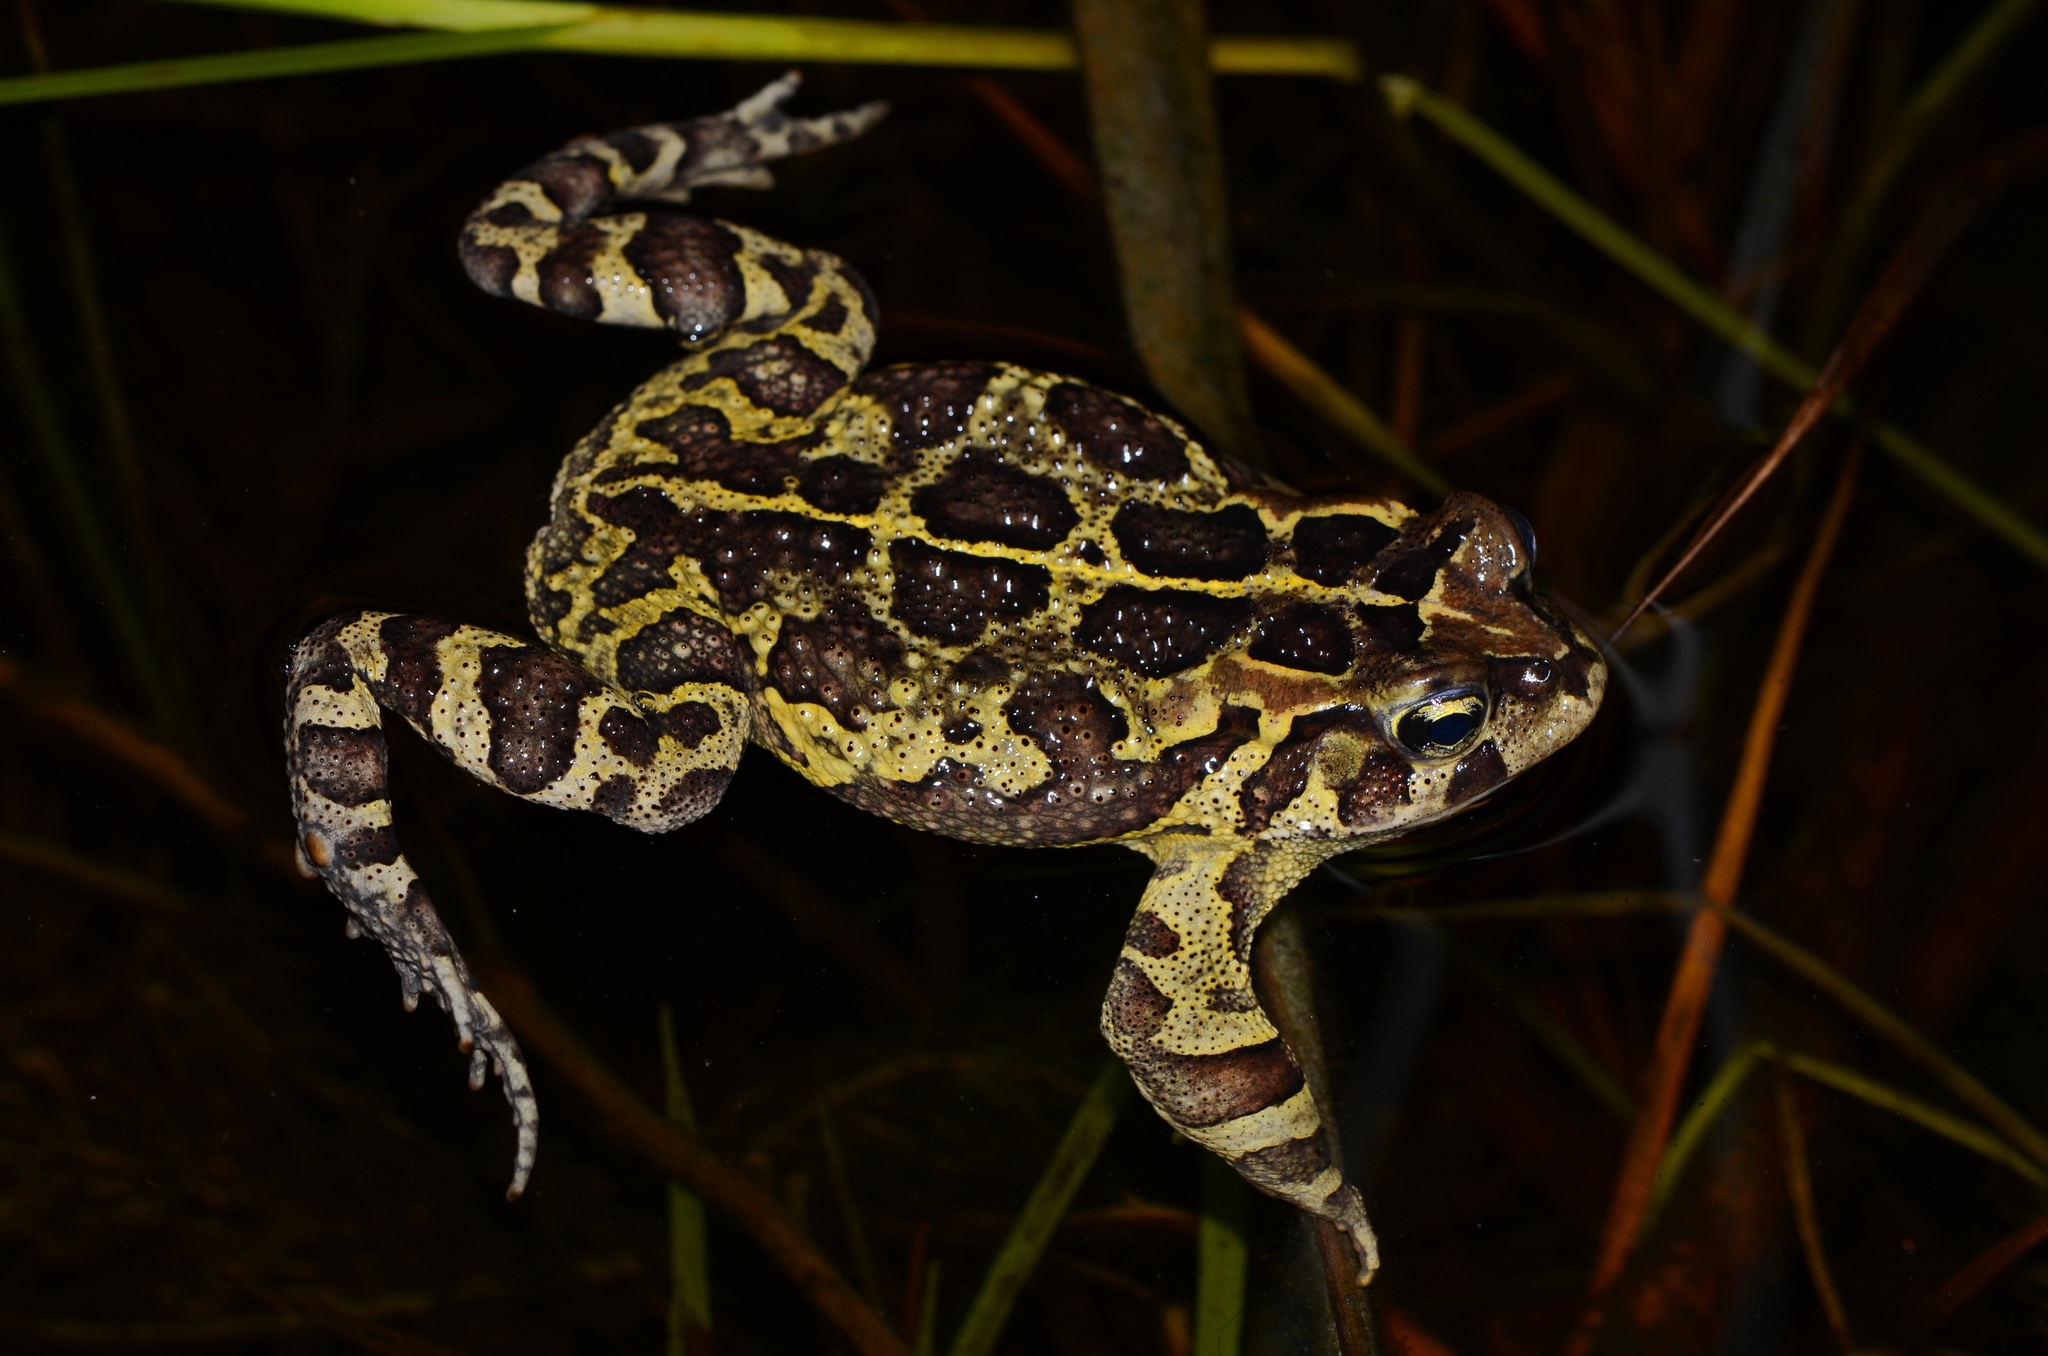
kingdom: Animalia
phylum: Chordata
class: Amphibia
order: Anura
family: Bufonidae
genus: Sclerophrys
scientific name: Sclerophrys pantherina
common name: Panther toad
